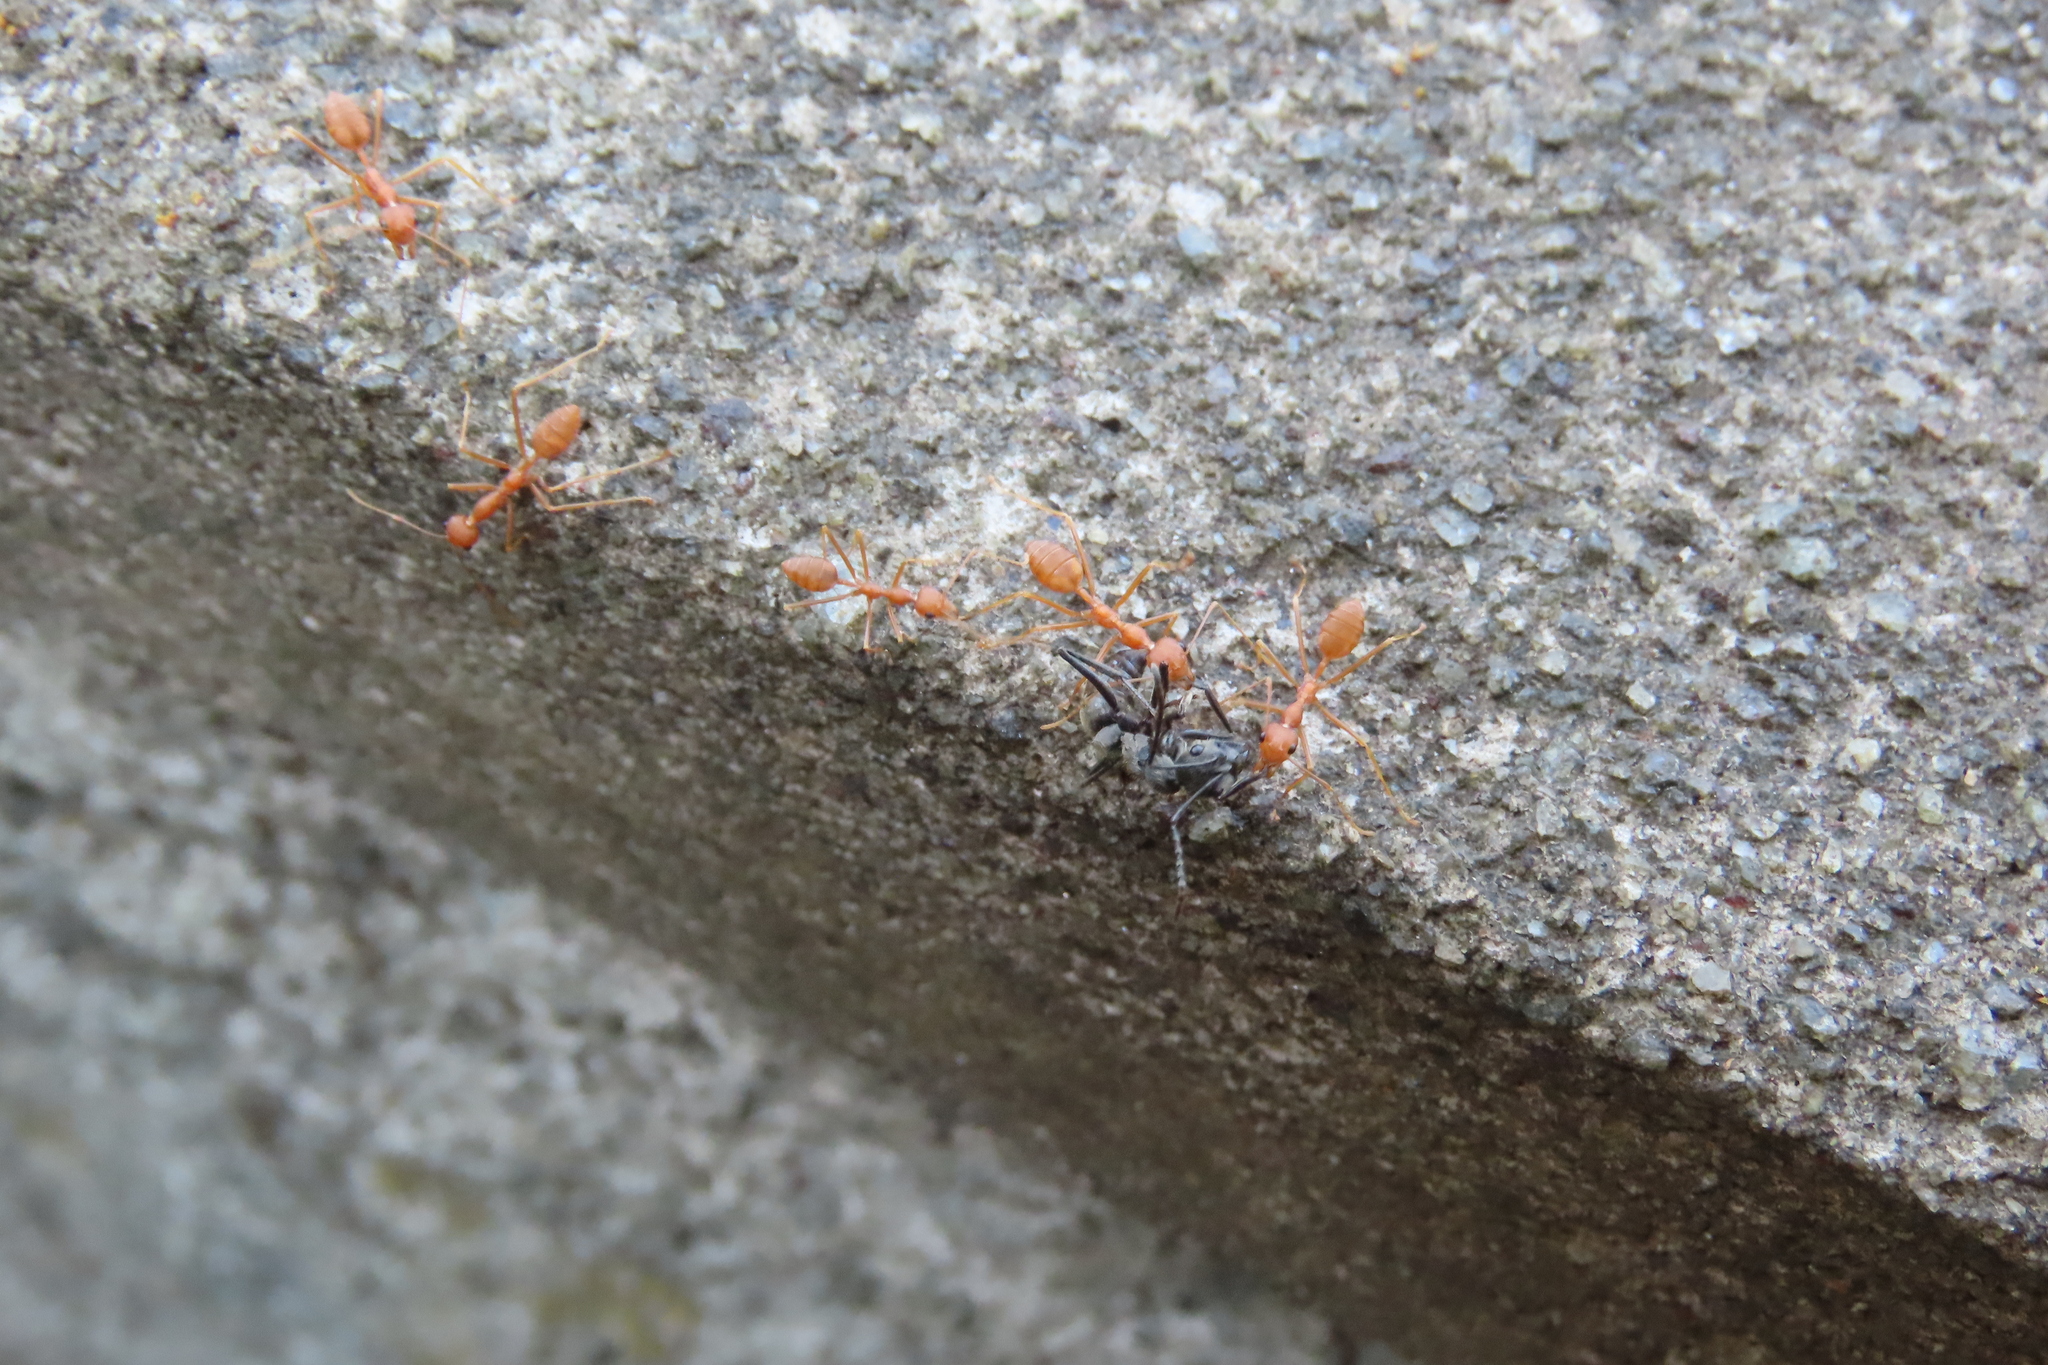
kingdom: Animalia
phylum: Arthropoda
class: Insecta
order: Hymenoptera
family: Formicidae
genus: Oecophylla
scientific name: Oecophylla smaragdina
